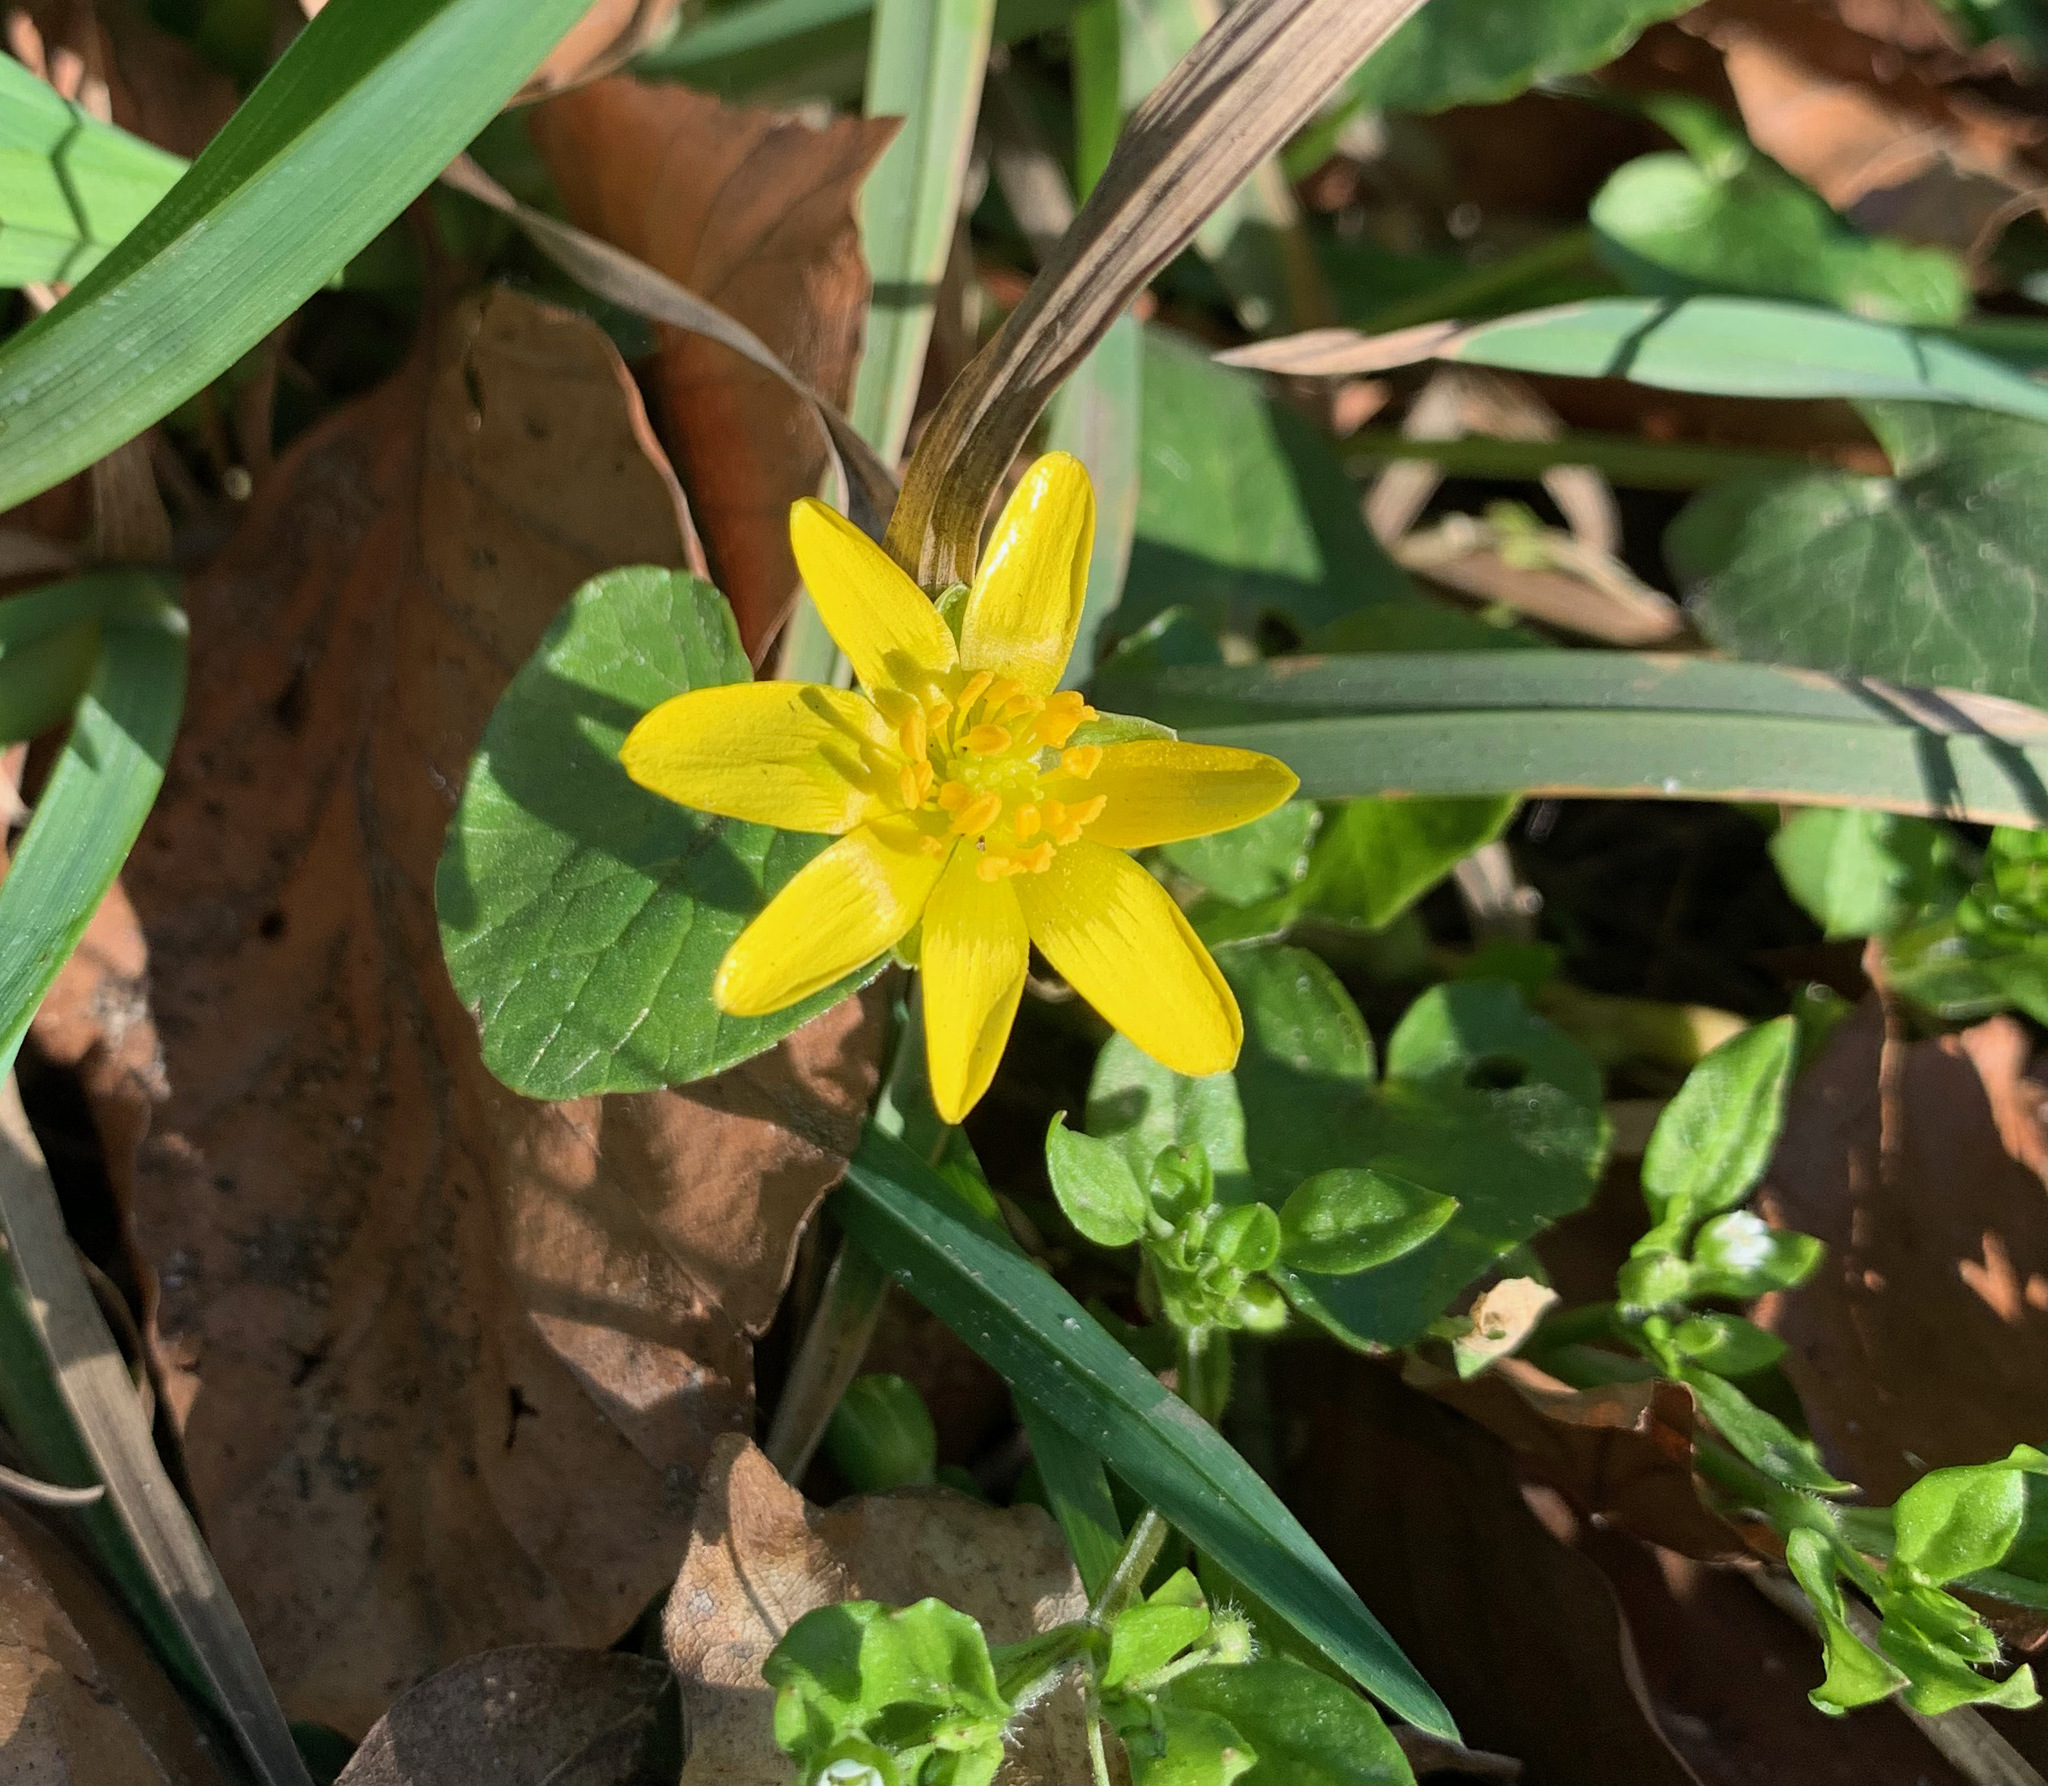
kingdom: Plantae
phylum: Tracheophyta
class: Magnoliopsida
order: Ranunculales
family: Ranunculaceae
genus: Ficaria
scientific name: Ficaria verna
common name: Lesser celandine
